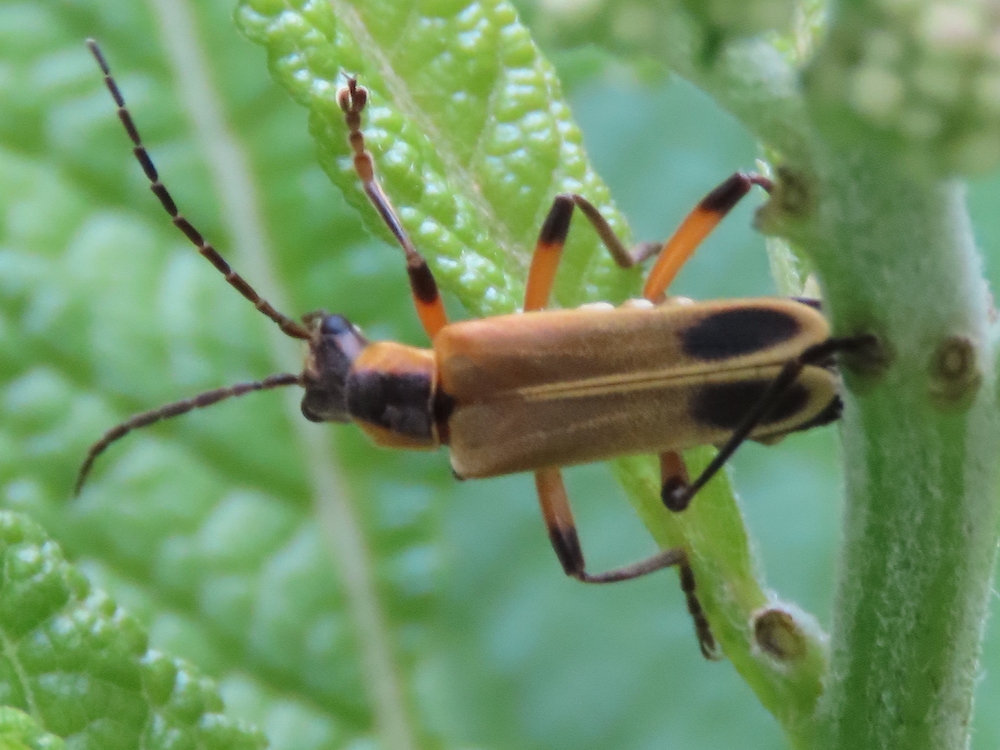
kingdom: Animalia
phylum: Arthropoda
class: Insecta
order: Coleoptera
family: Cantharidae
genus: Chauliognathus
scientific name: Chauliognathus marginatus
